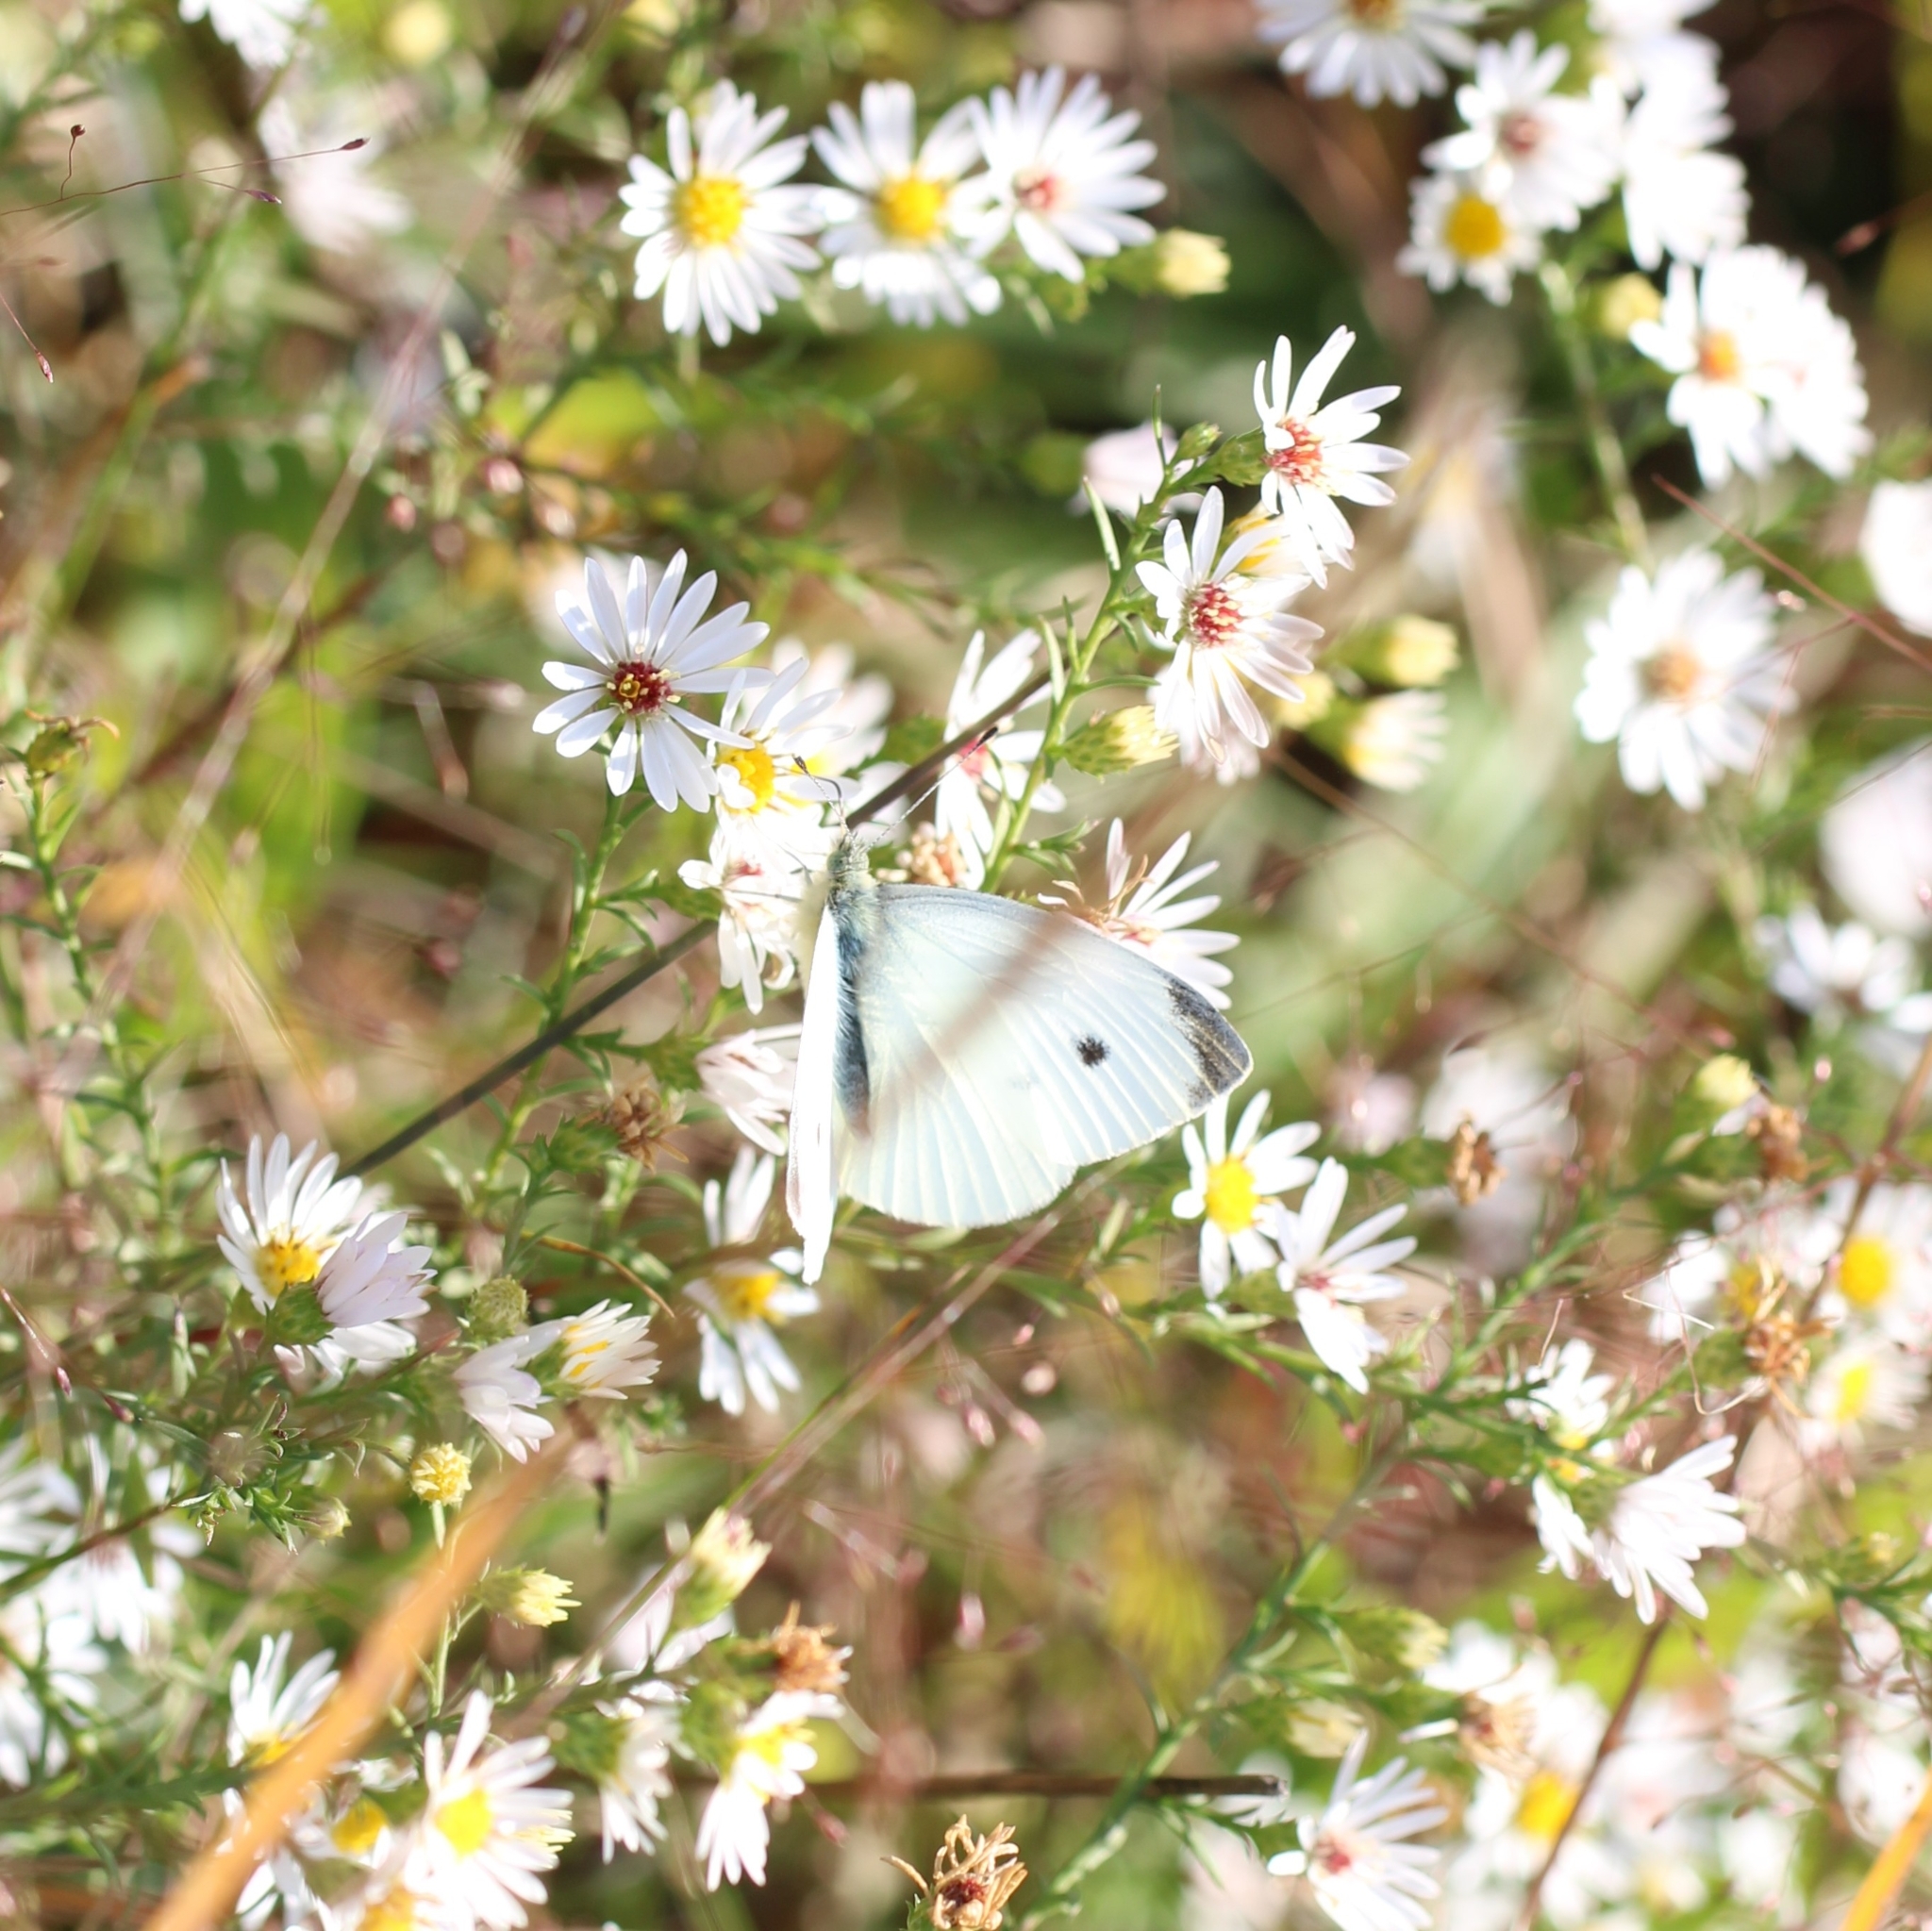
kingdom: Animalia
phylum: Arthropoda
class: Insecta
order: Lepidoptera
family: Pieridae
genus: Pieris
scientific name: Pieris rapae
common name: Small white
